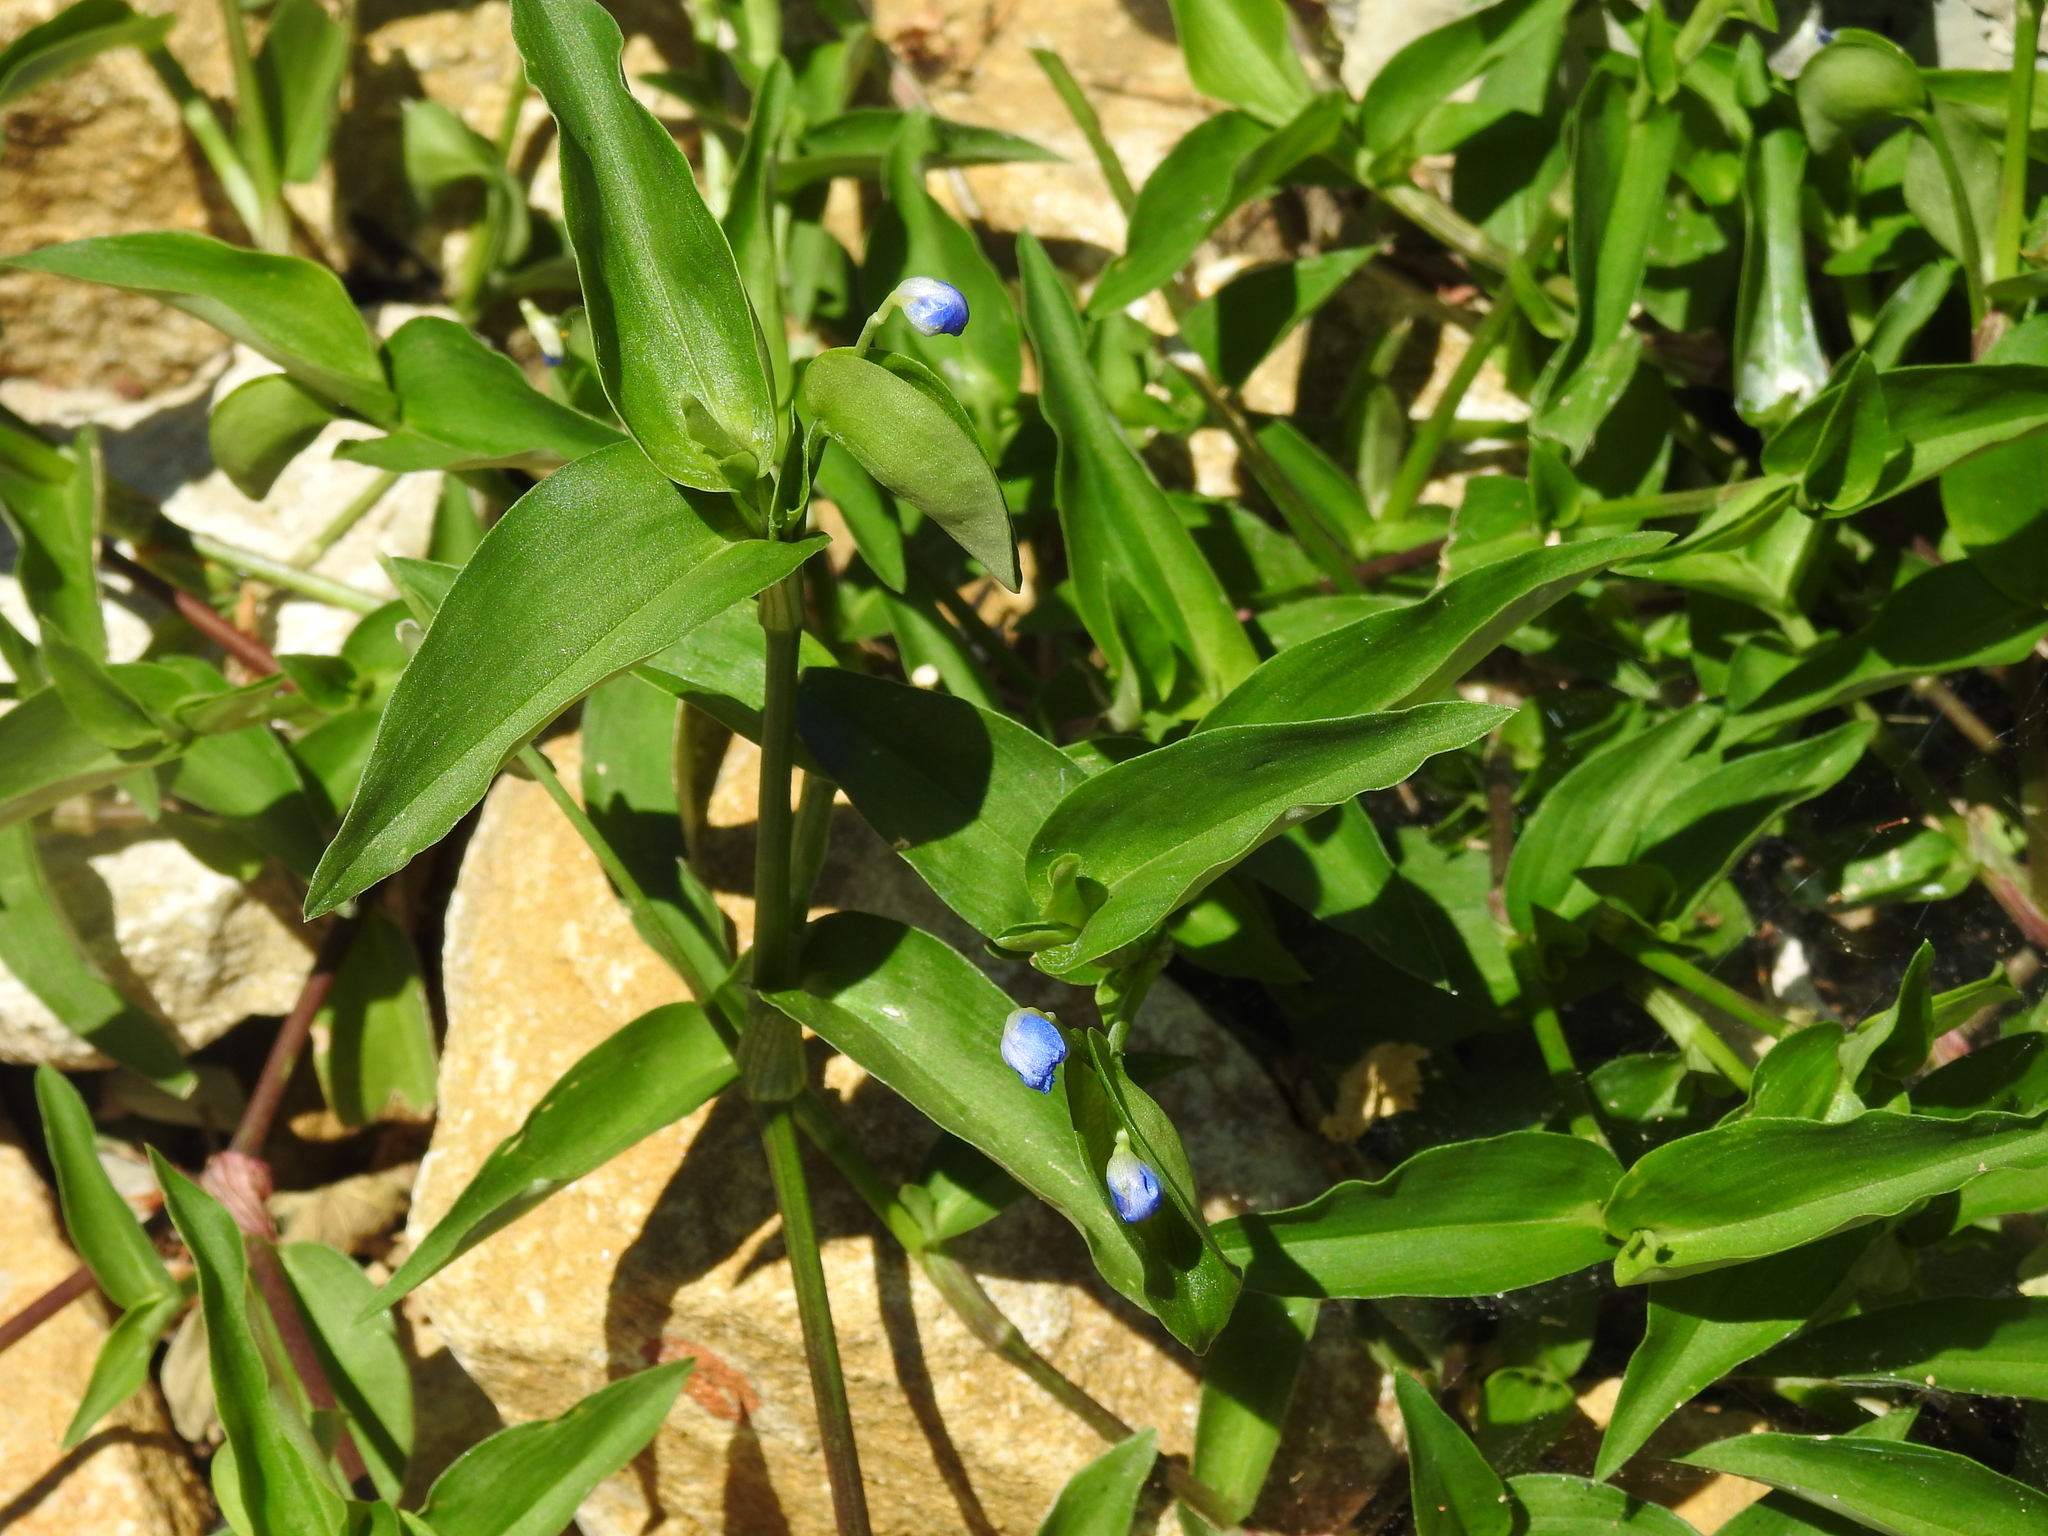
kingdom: Plantae
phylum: Tracheophyta
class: Liliopsida
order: Commelinales
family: Commelinaceae
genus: Commelina
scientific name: Commelina communis
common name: Asiatic dayflower
